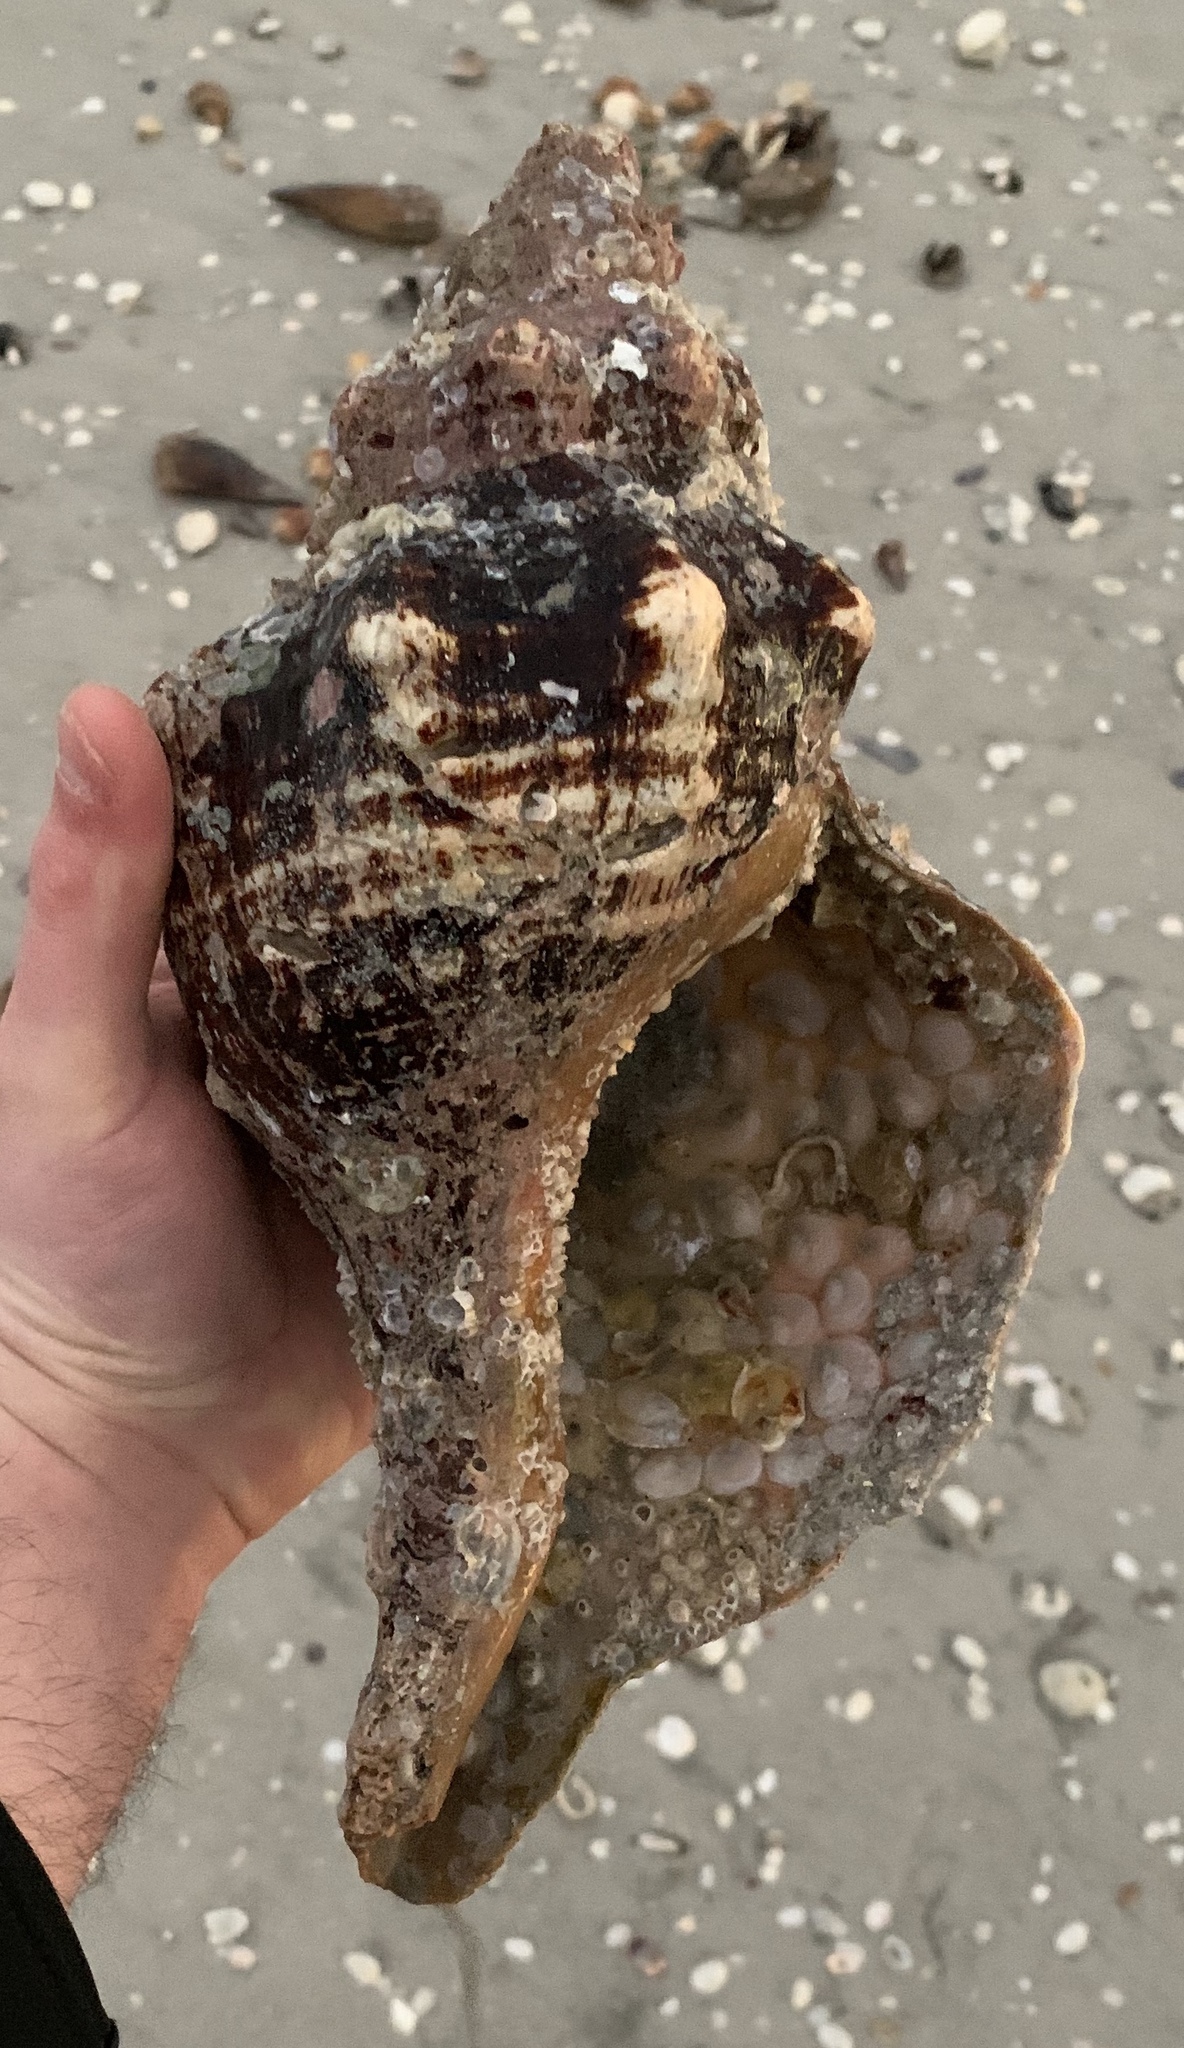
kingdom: Animalia
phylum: Mollusca
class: Gastropoda
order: Neogastropoda
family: Fasciolariidae
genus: Triplofusus
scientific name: Triplofusus giganteus
